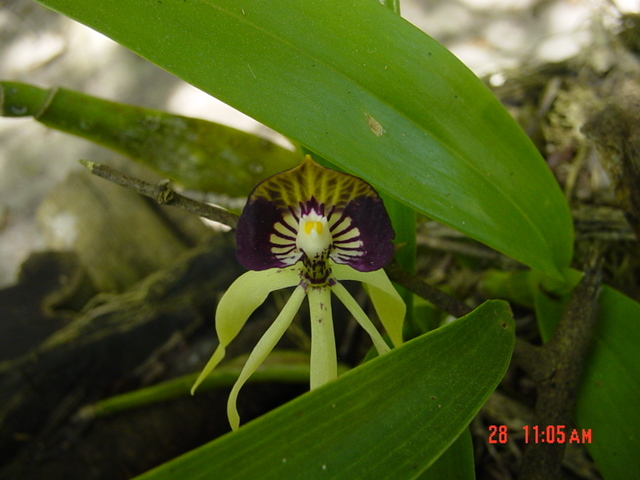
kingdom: Plantae
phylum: Tracheophyta
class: Liliopsida
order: Asparagales
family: Orchidaceae
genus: Prosthechea
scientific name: Prosthechea cochleata
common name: Clamshell orchid
